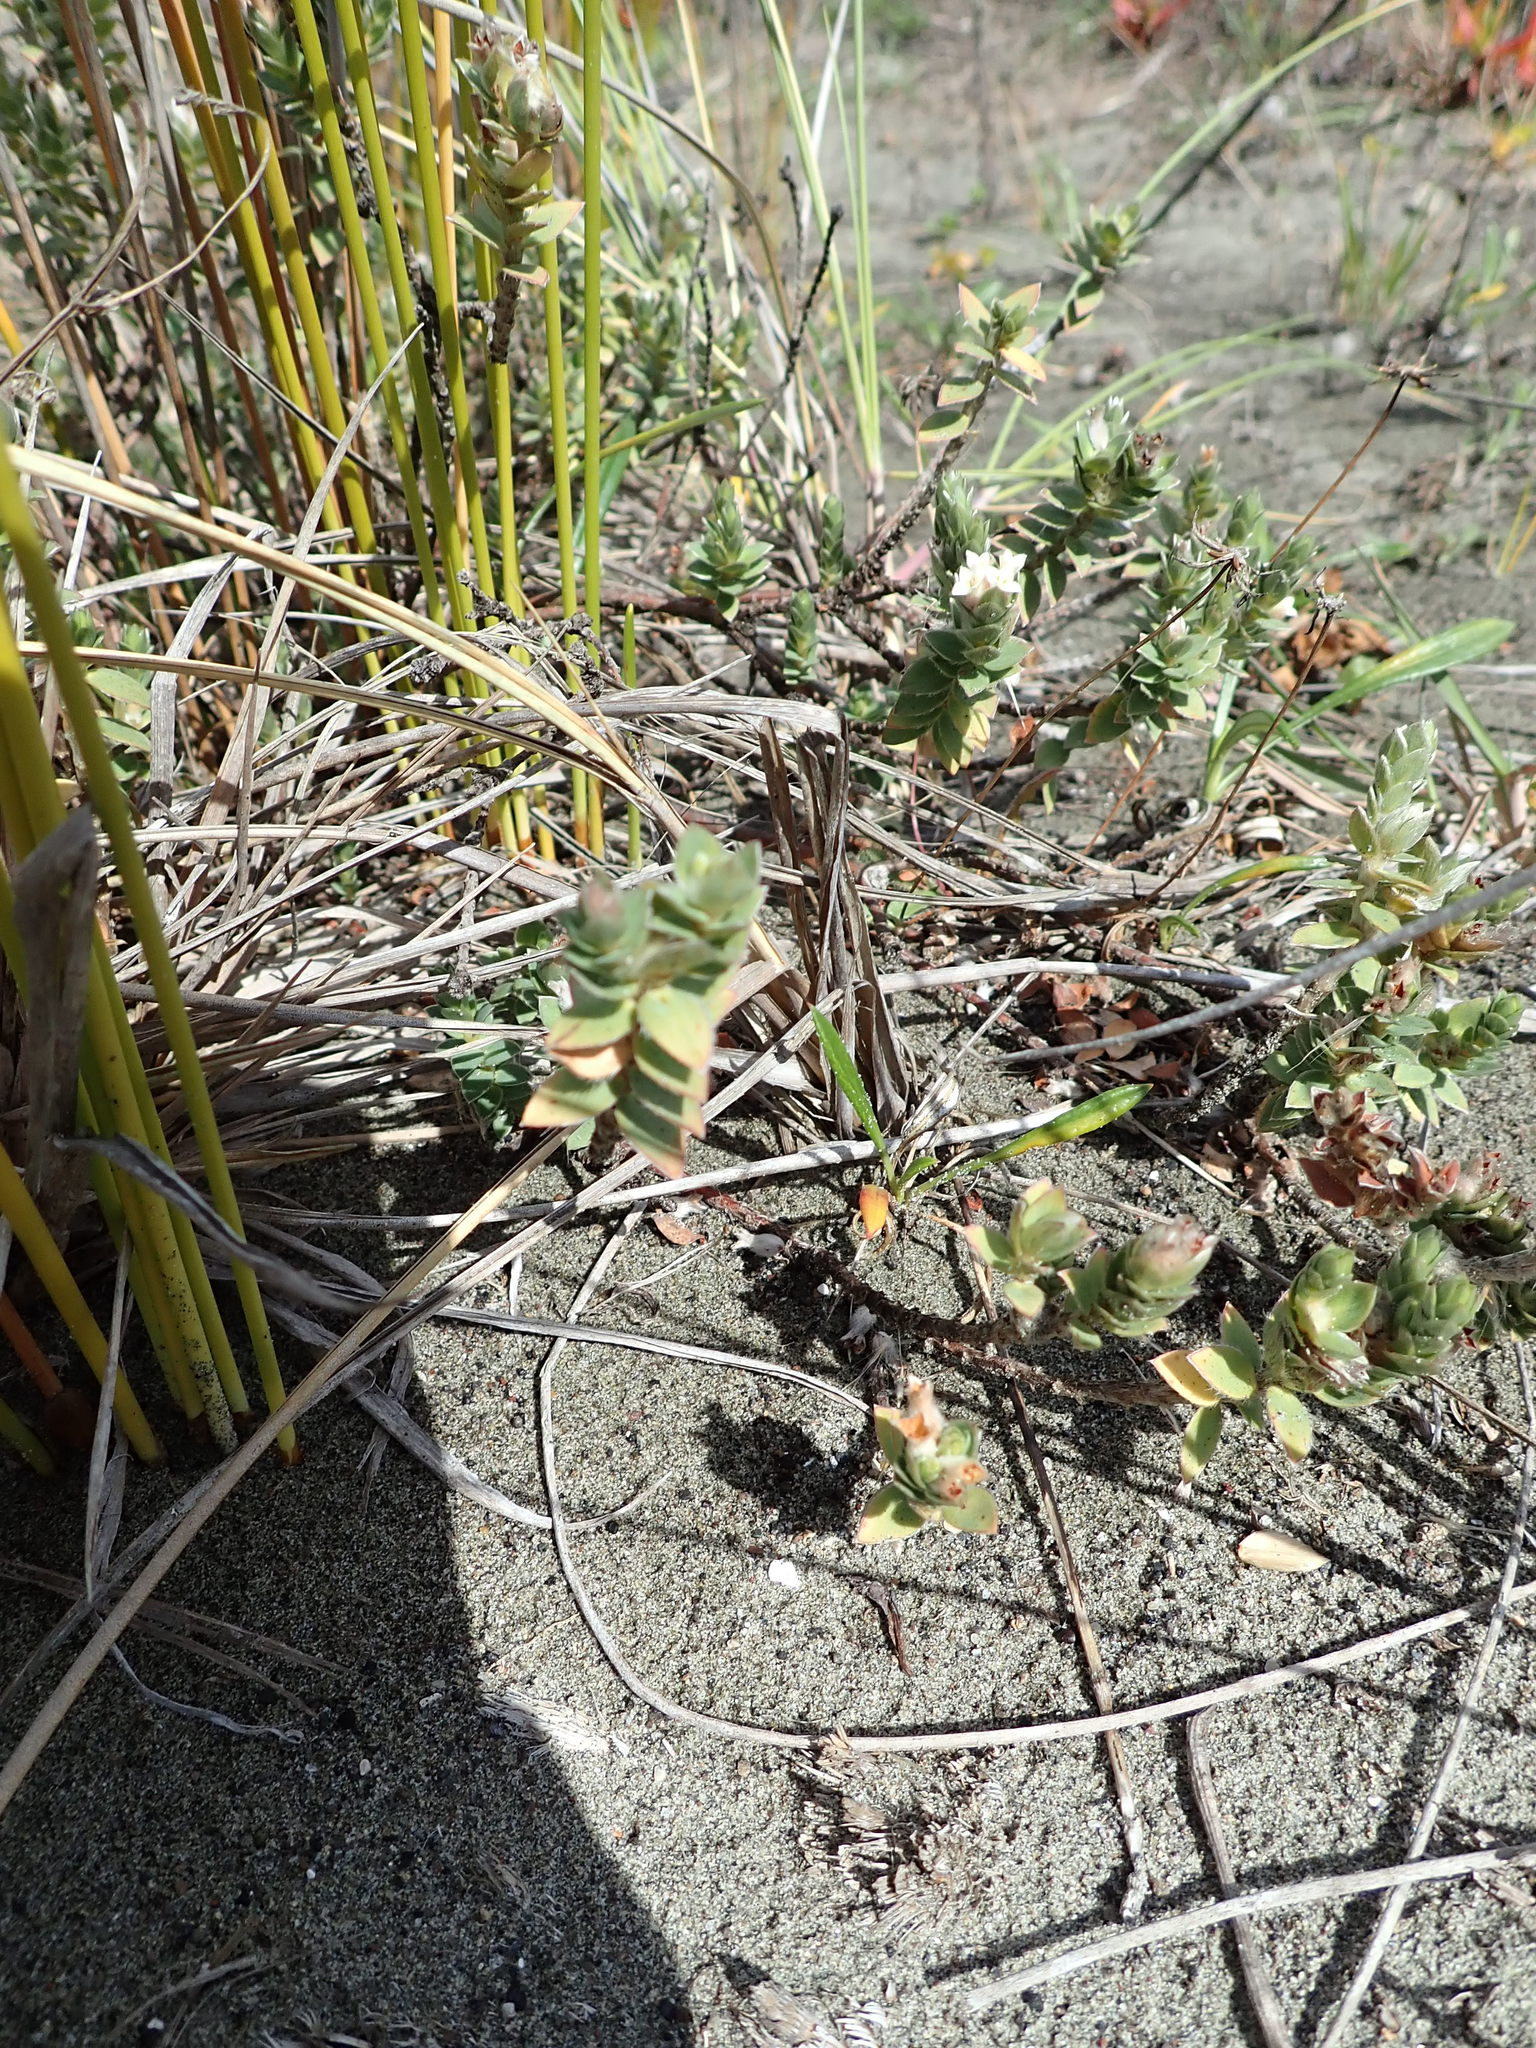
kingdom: Plantae
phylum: Tracheophyta
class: Magnoliopsida
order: Malvales
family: Thymelaeaceae
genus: Pimelea
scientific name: Pimelea villosa
